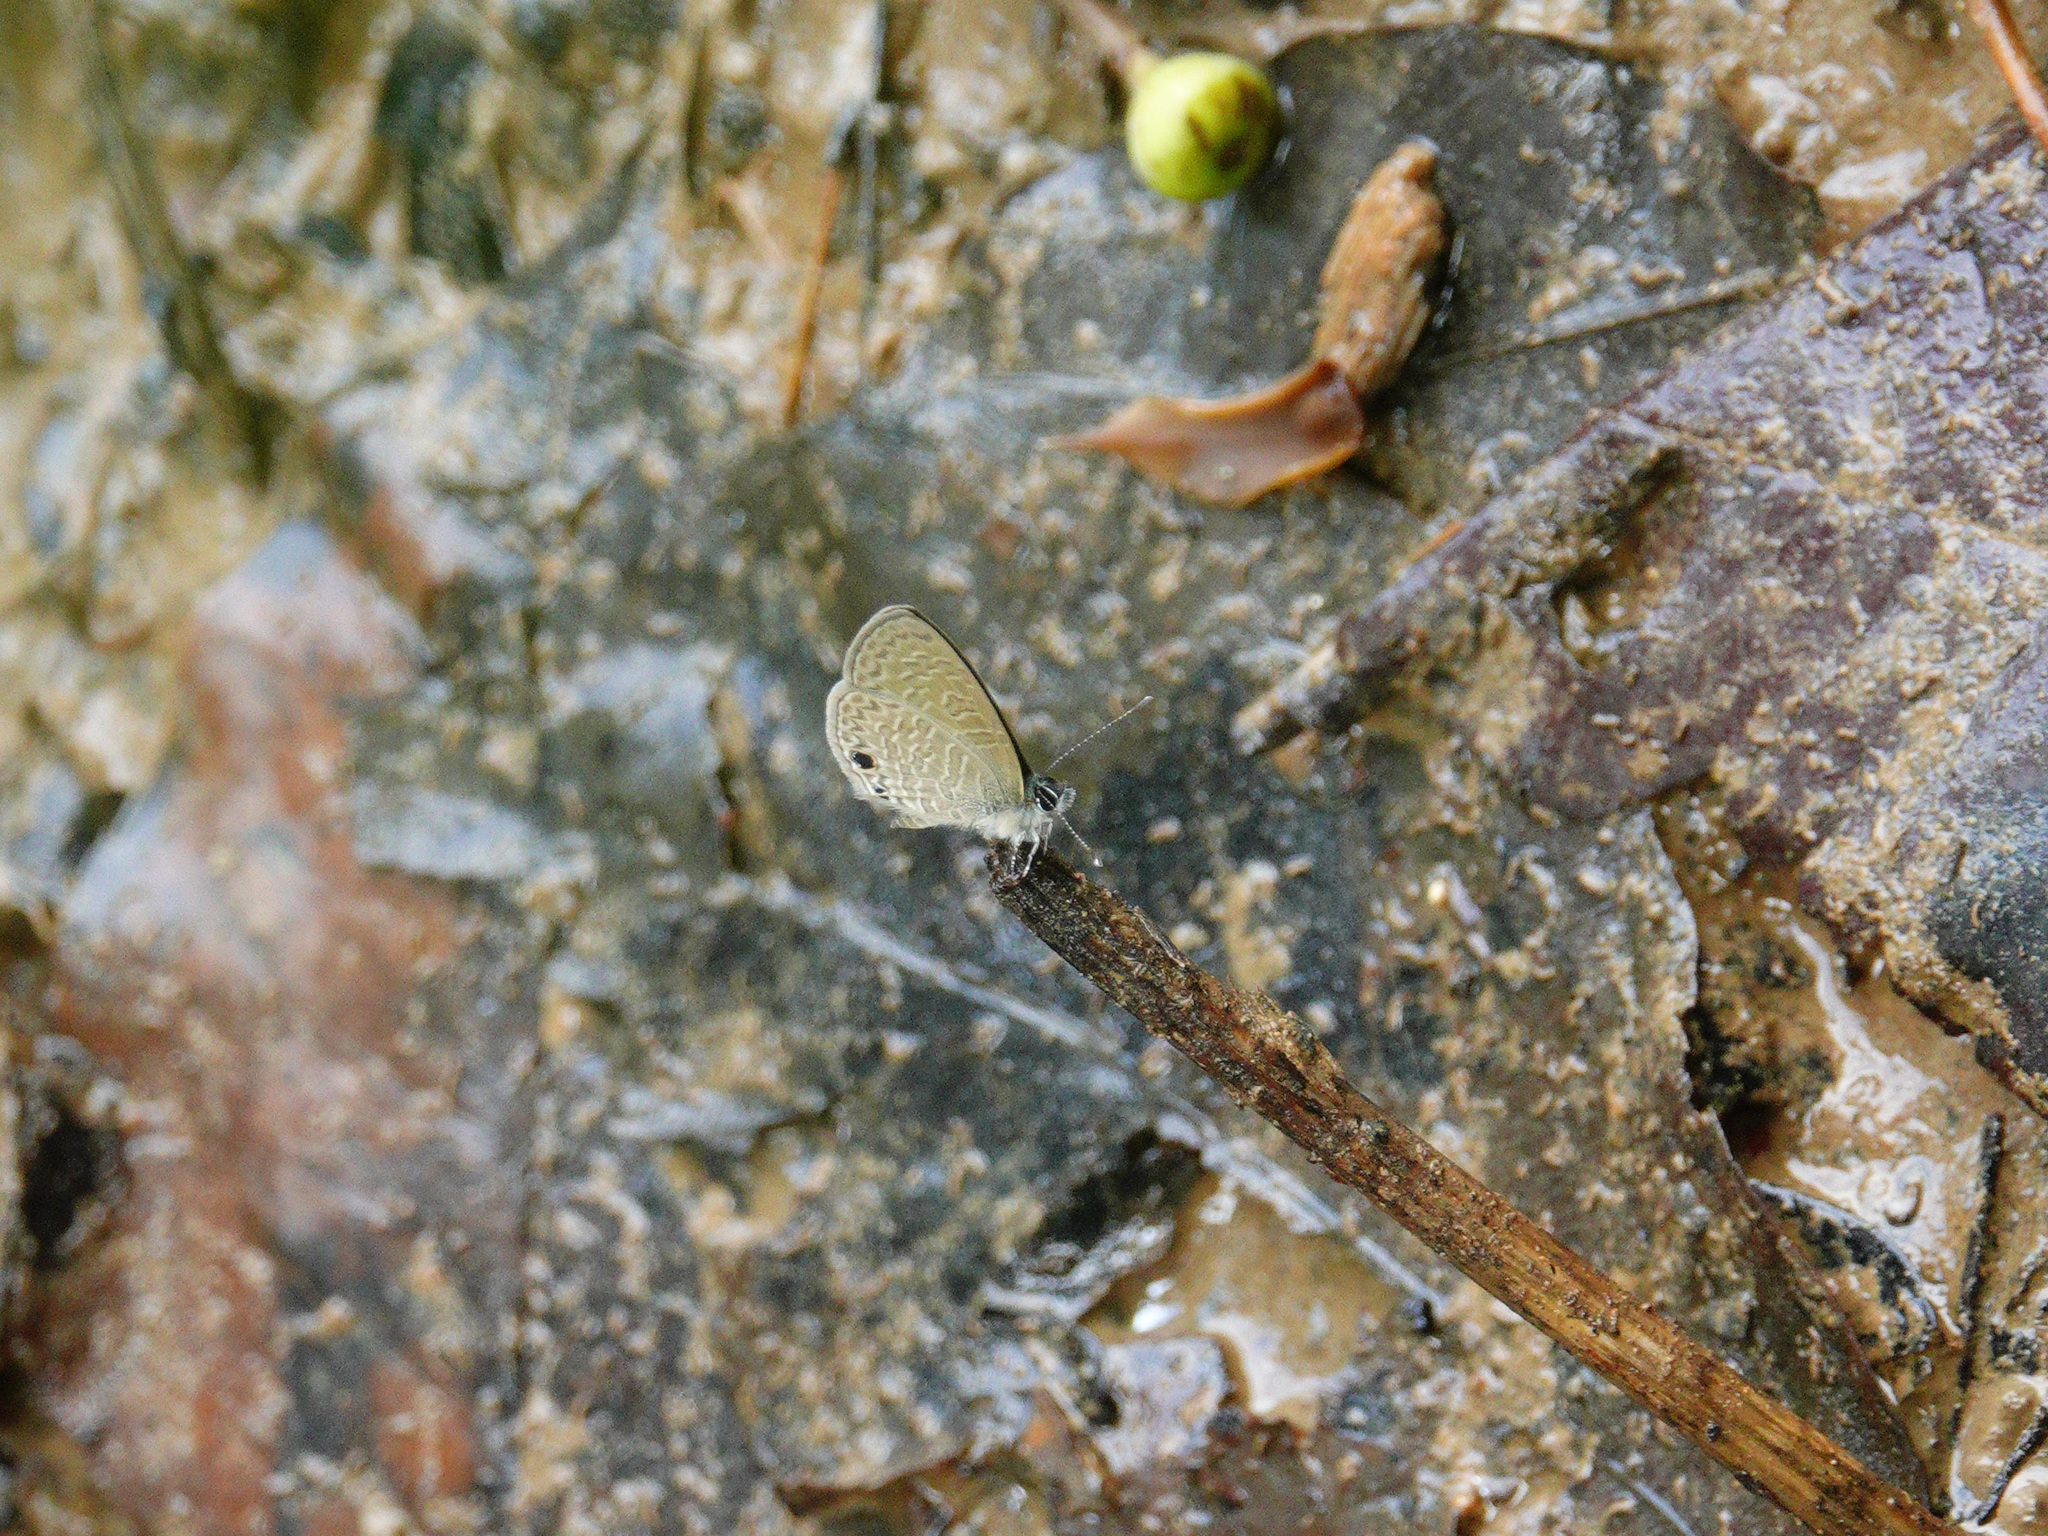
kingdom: Animalia
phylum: Arthropoda
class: Insecta
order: Lepidoptera
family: Lycaenidae
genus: Prosotas
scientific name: Prosotas dubiosa
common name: Tailless lineblue
